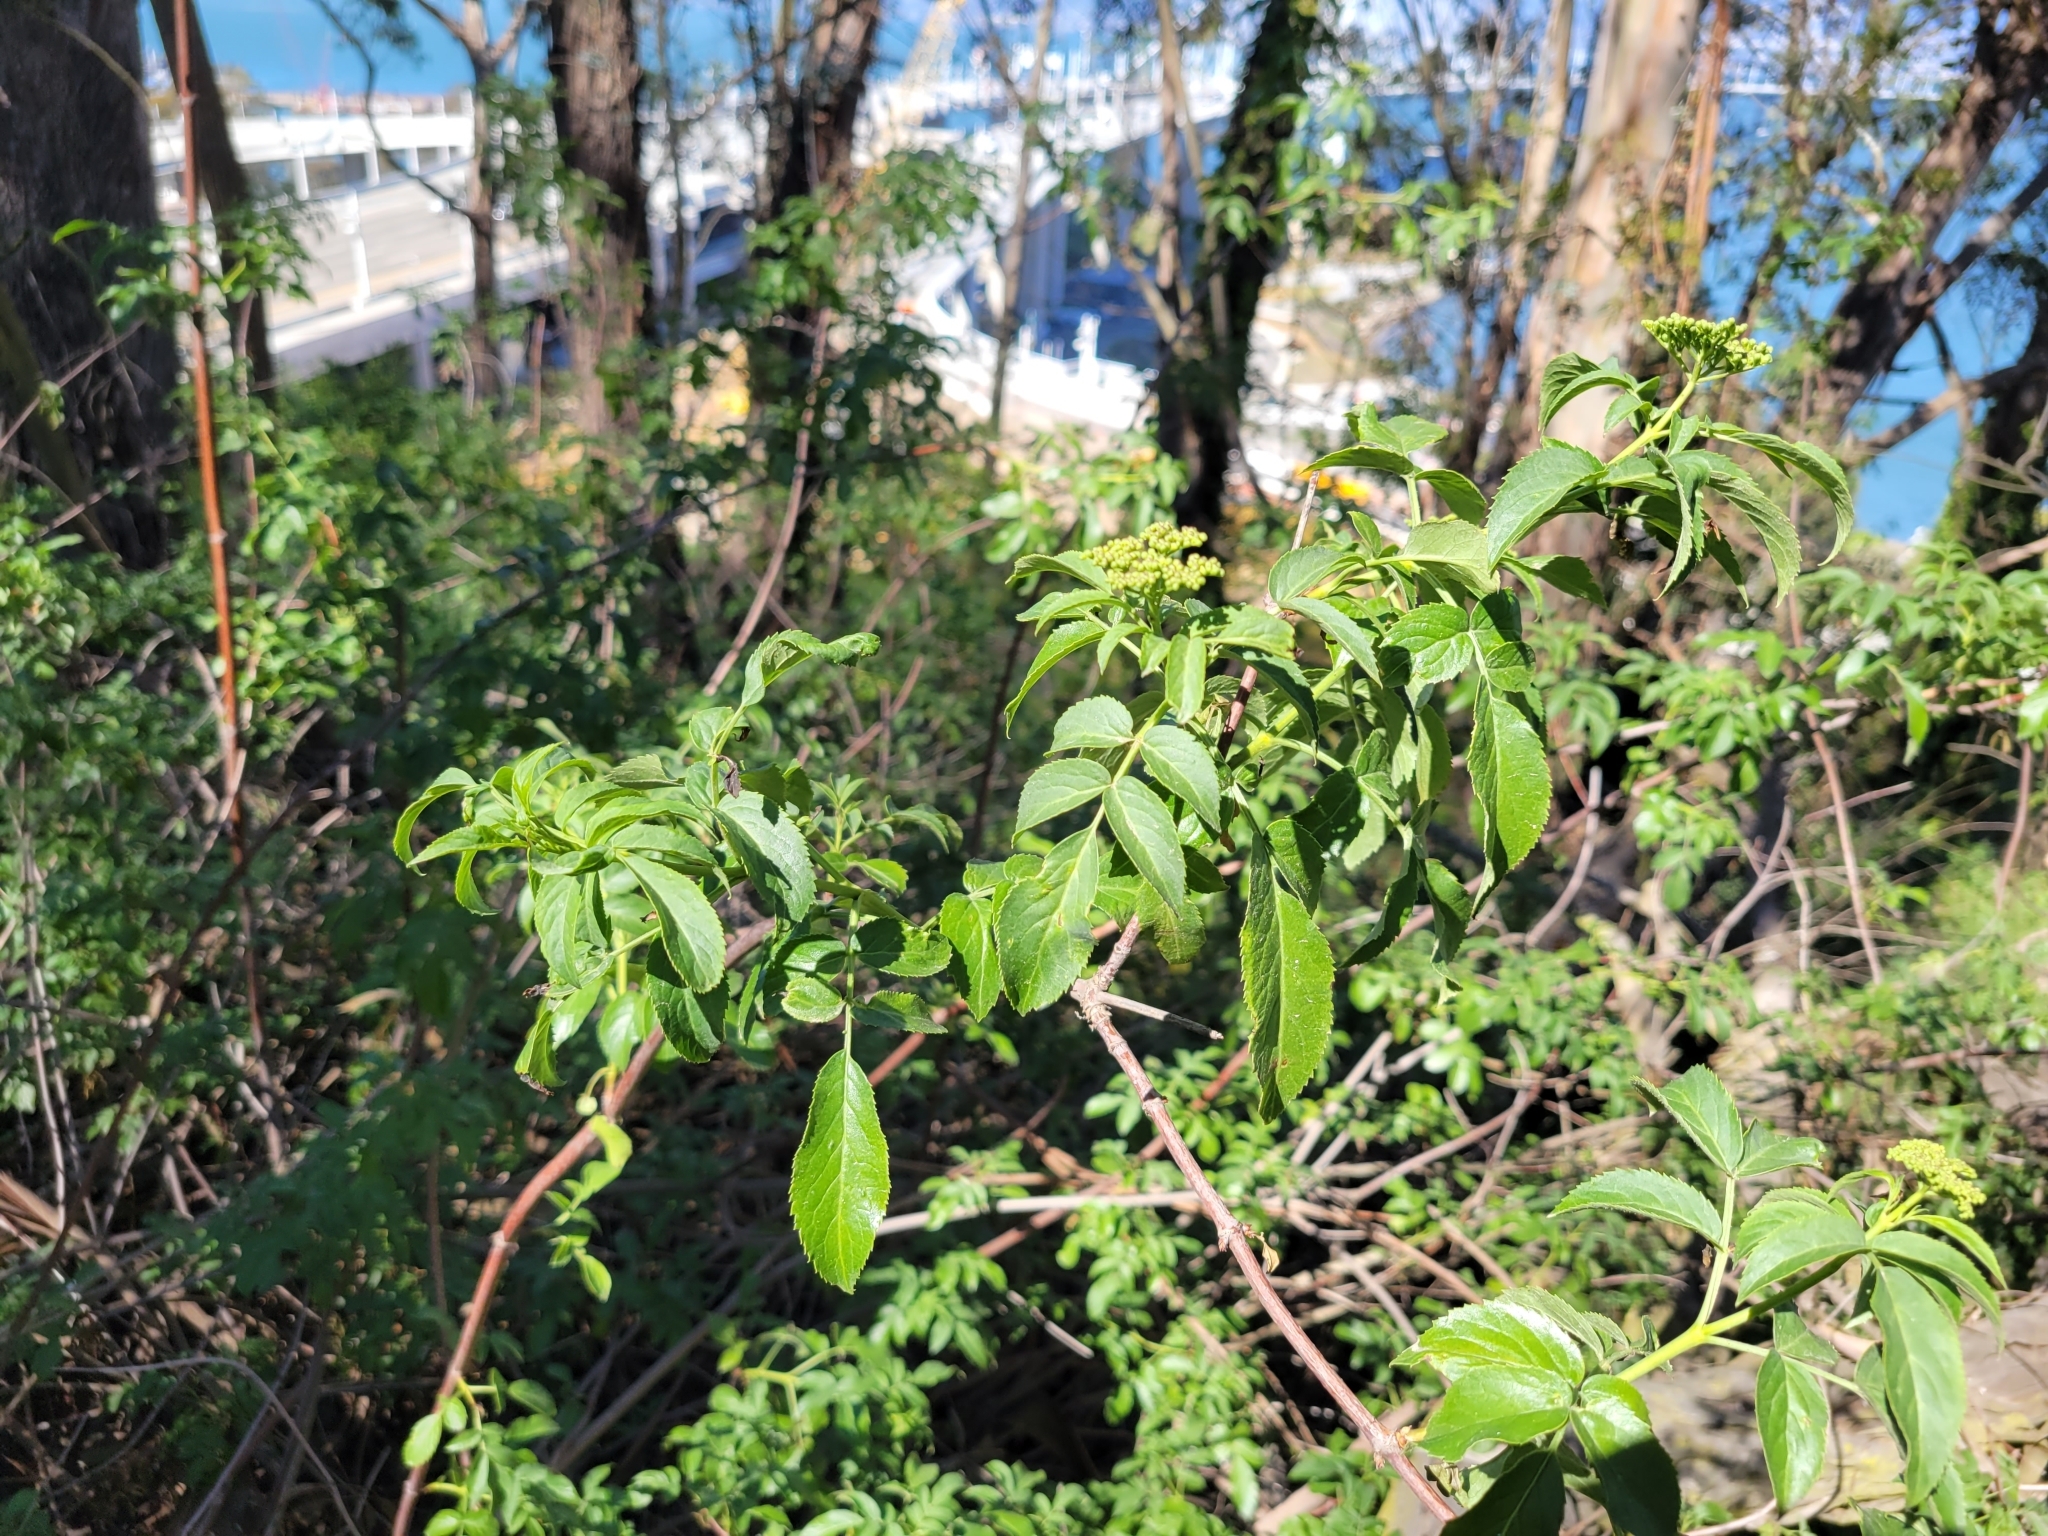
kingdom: Plantae
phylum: Tracheophyta
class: Magnoliopsida
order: Dipsacales
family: Viburnaceae
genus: Sambucus
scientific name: Sambucus cerulea
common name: Blue elder
